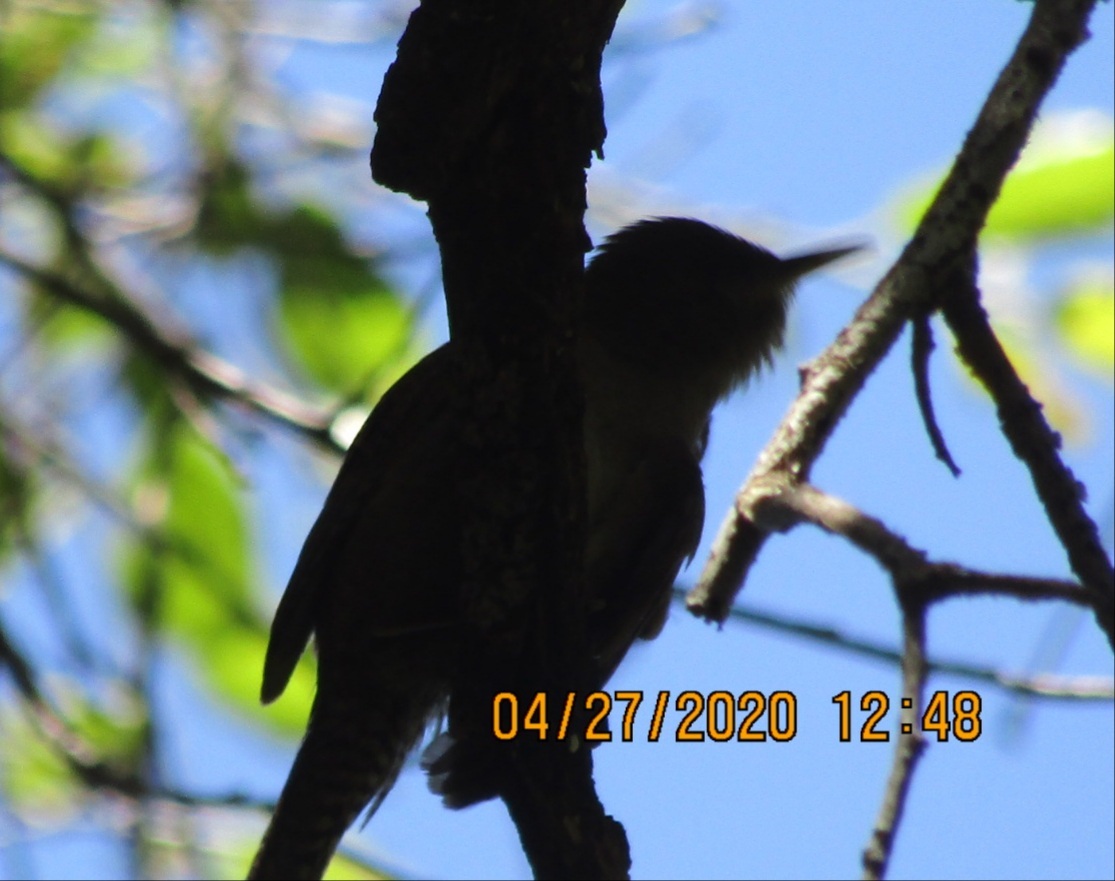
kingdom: Animalia
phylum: Chordata
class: Aves
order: Passeriformes
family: Troglodytidae
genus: Troglodytes
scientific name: Troglodytes aedon
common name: House wren
